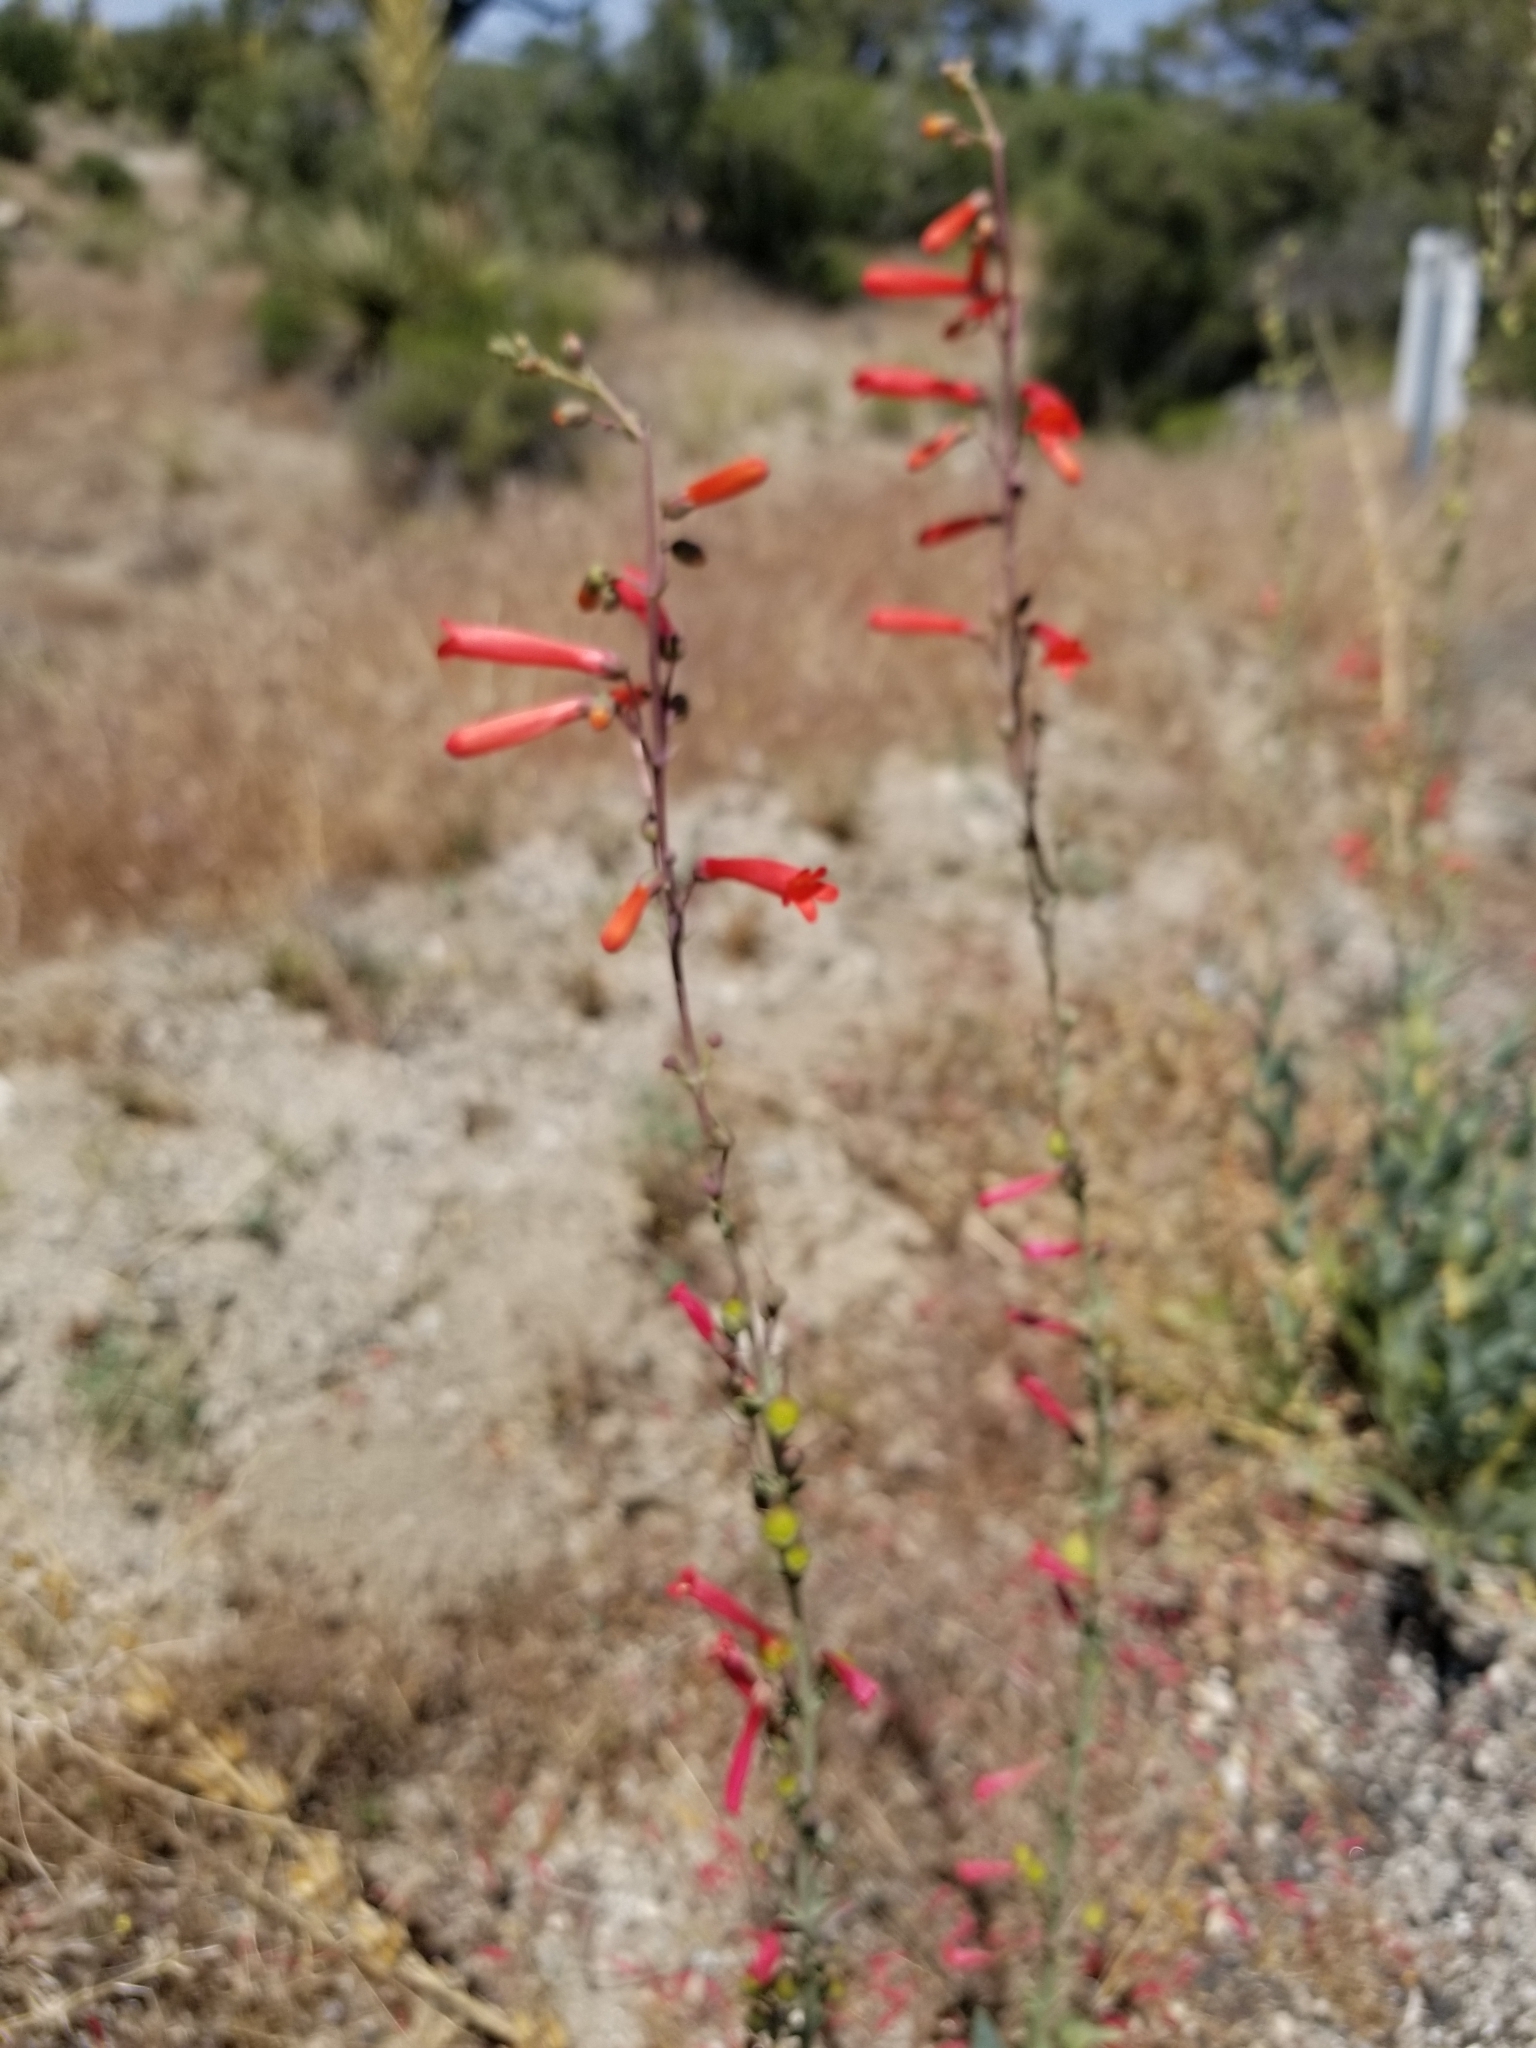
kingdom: Plantae
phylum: Tracheophyta
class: Magnoliopsida
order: Lamiales
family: Plantaginaceae
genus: Penstemon
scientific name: Penstemon centranthifolius
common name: Scarlet bugler
